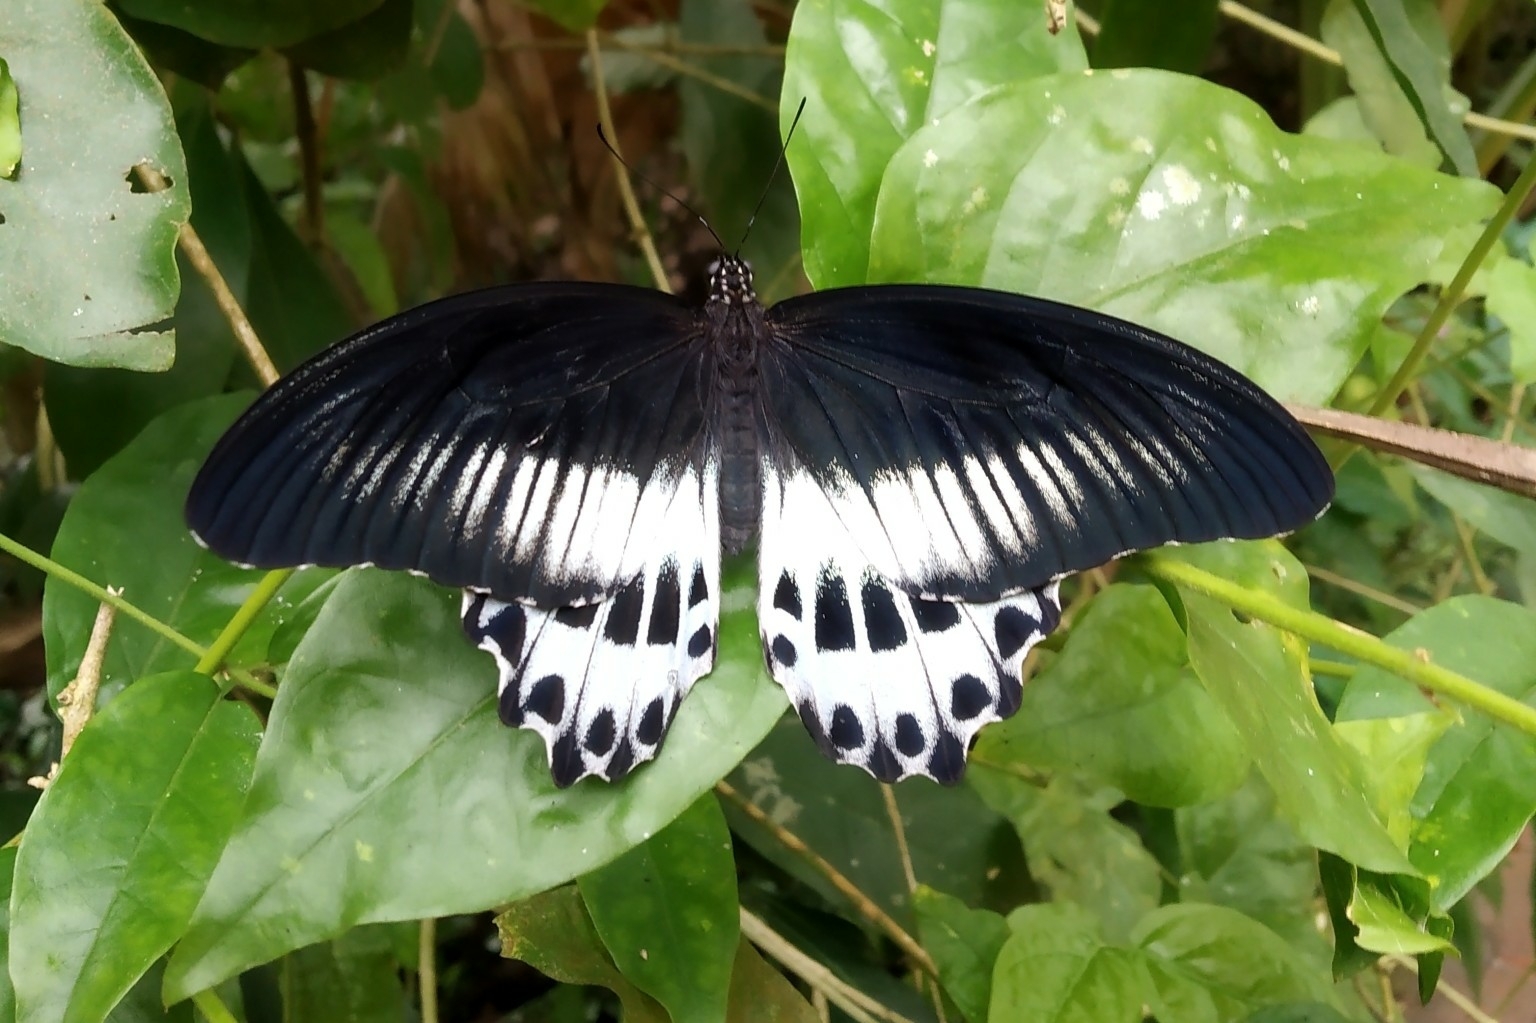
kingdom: Animalia
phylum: Arthropoda
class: Insecta
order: Lepidoptera
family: Papilionidae
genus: Papilio
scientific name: Papilio memnon
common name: Great mormon
